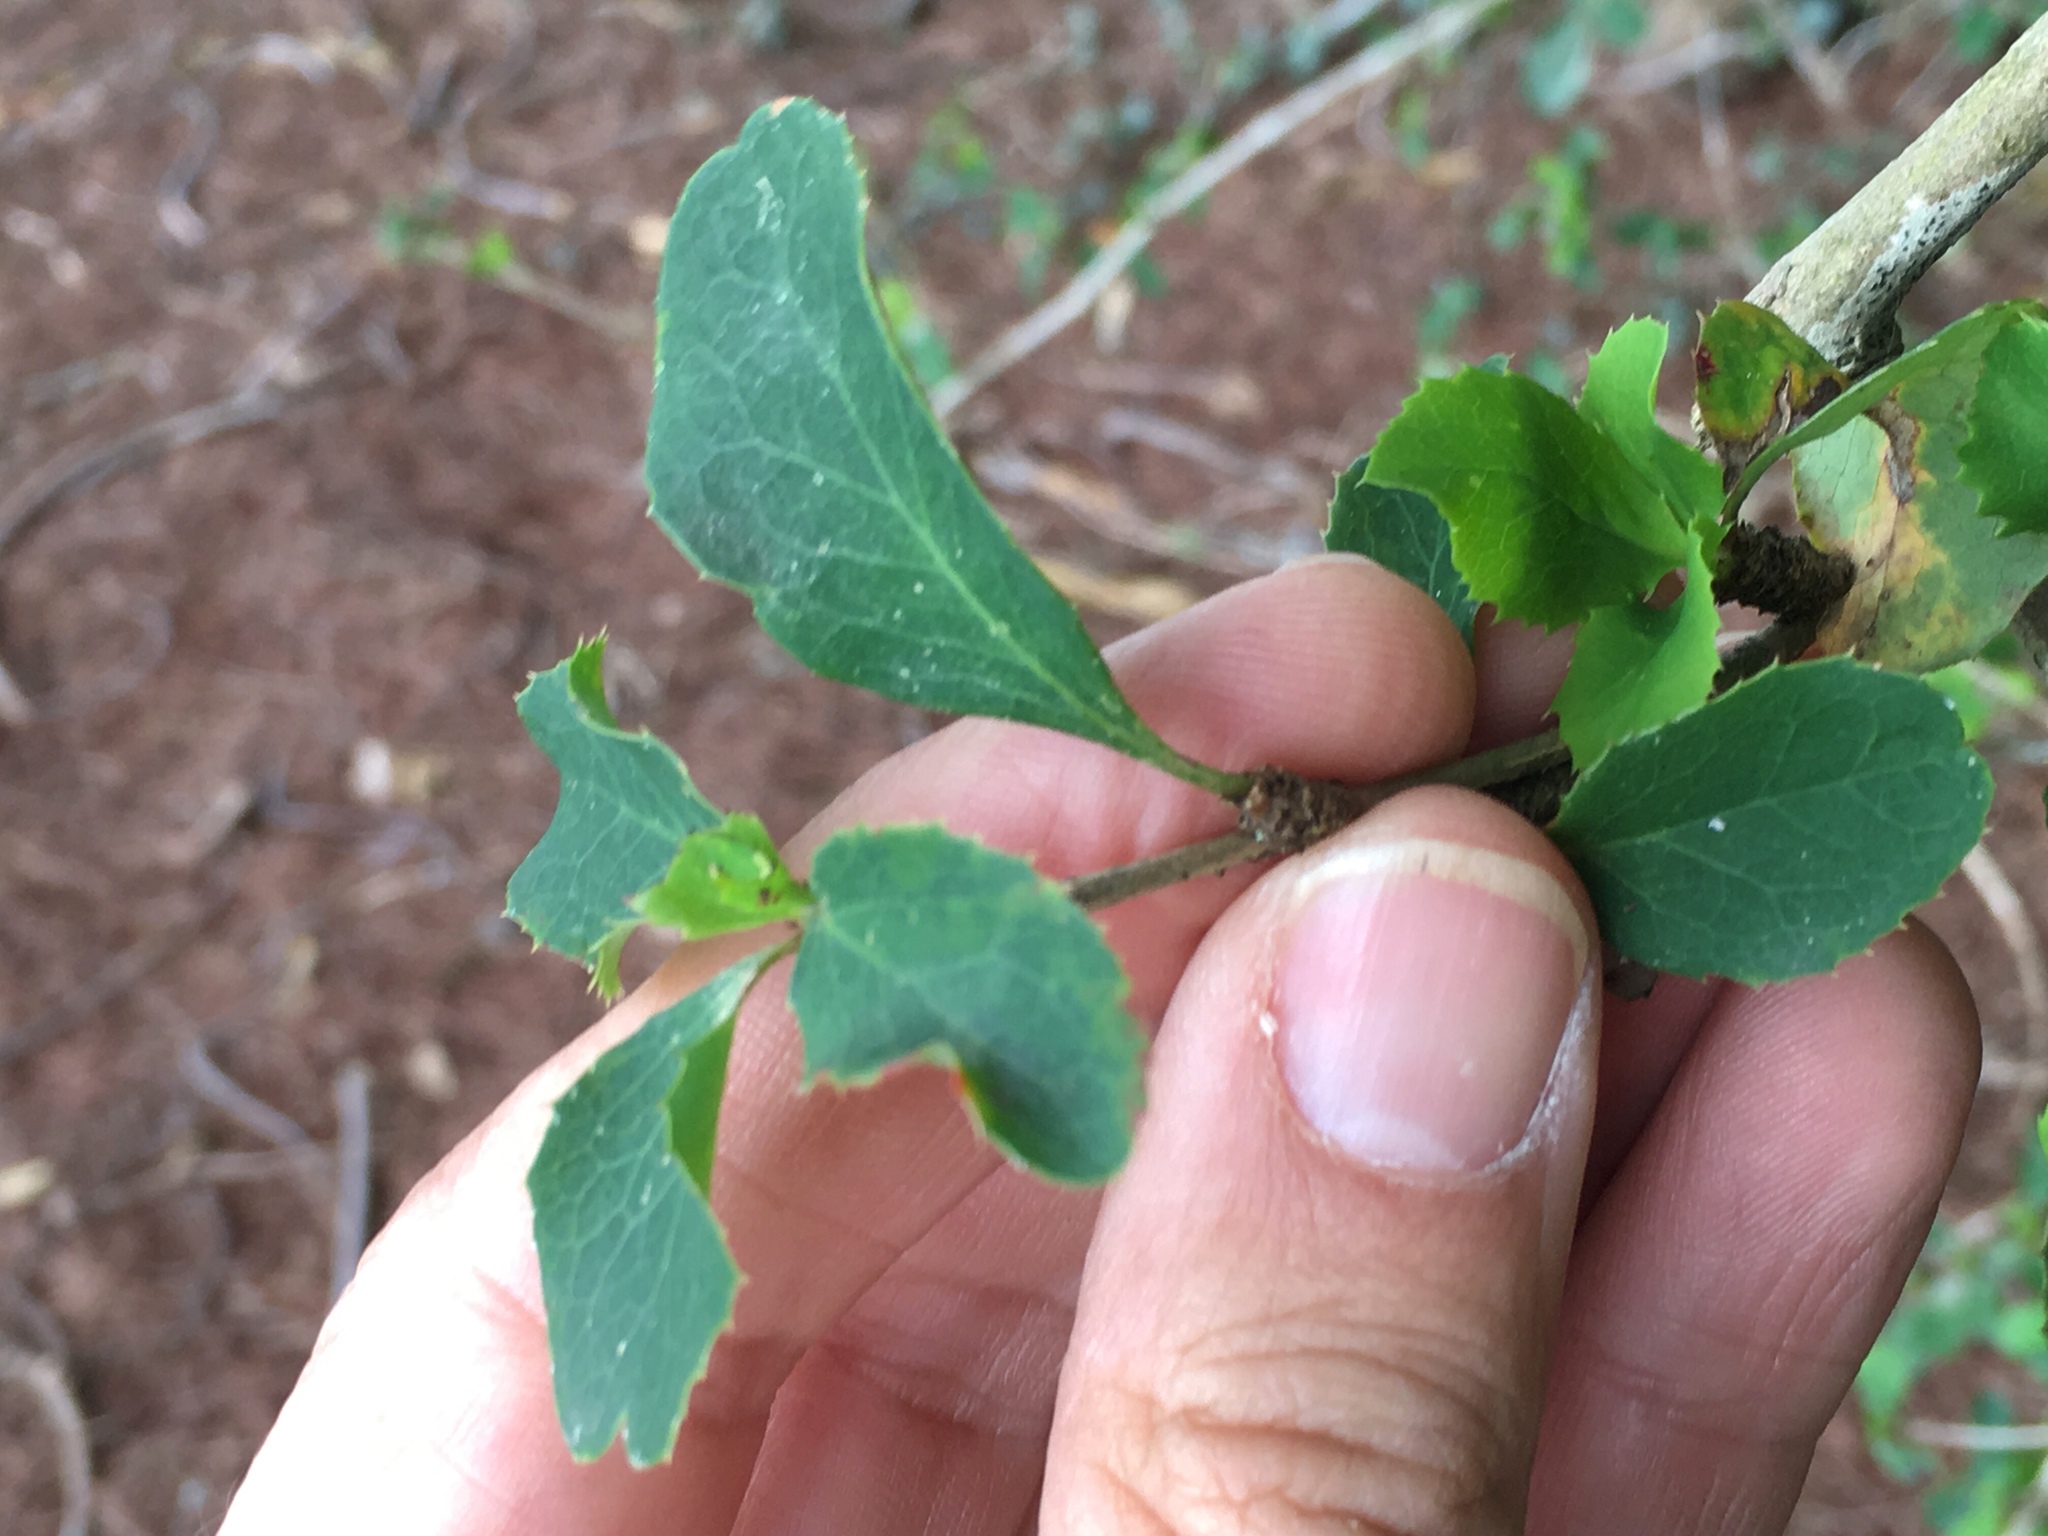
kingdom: Plantae
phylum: Tracheophyta
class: Magnoliopsida
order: Ranunculales
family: Berberidaceae
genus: Berberis
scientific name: Berberis glaucocarpa
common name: Great barberry
